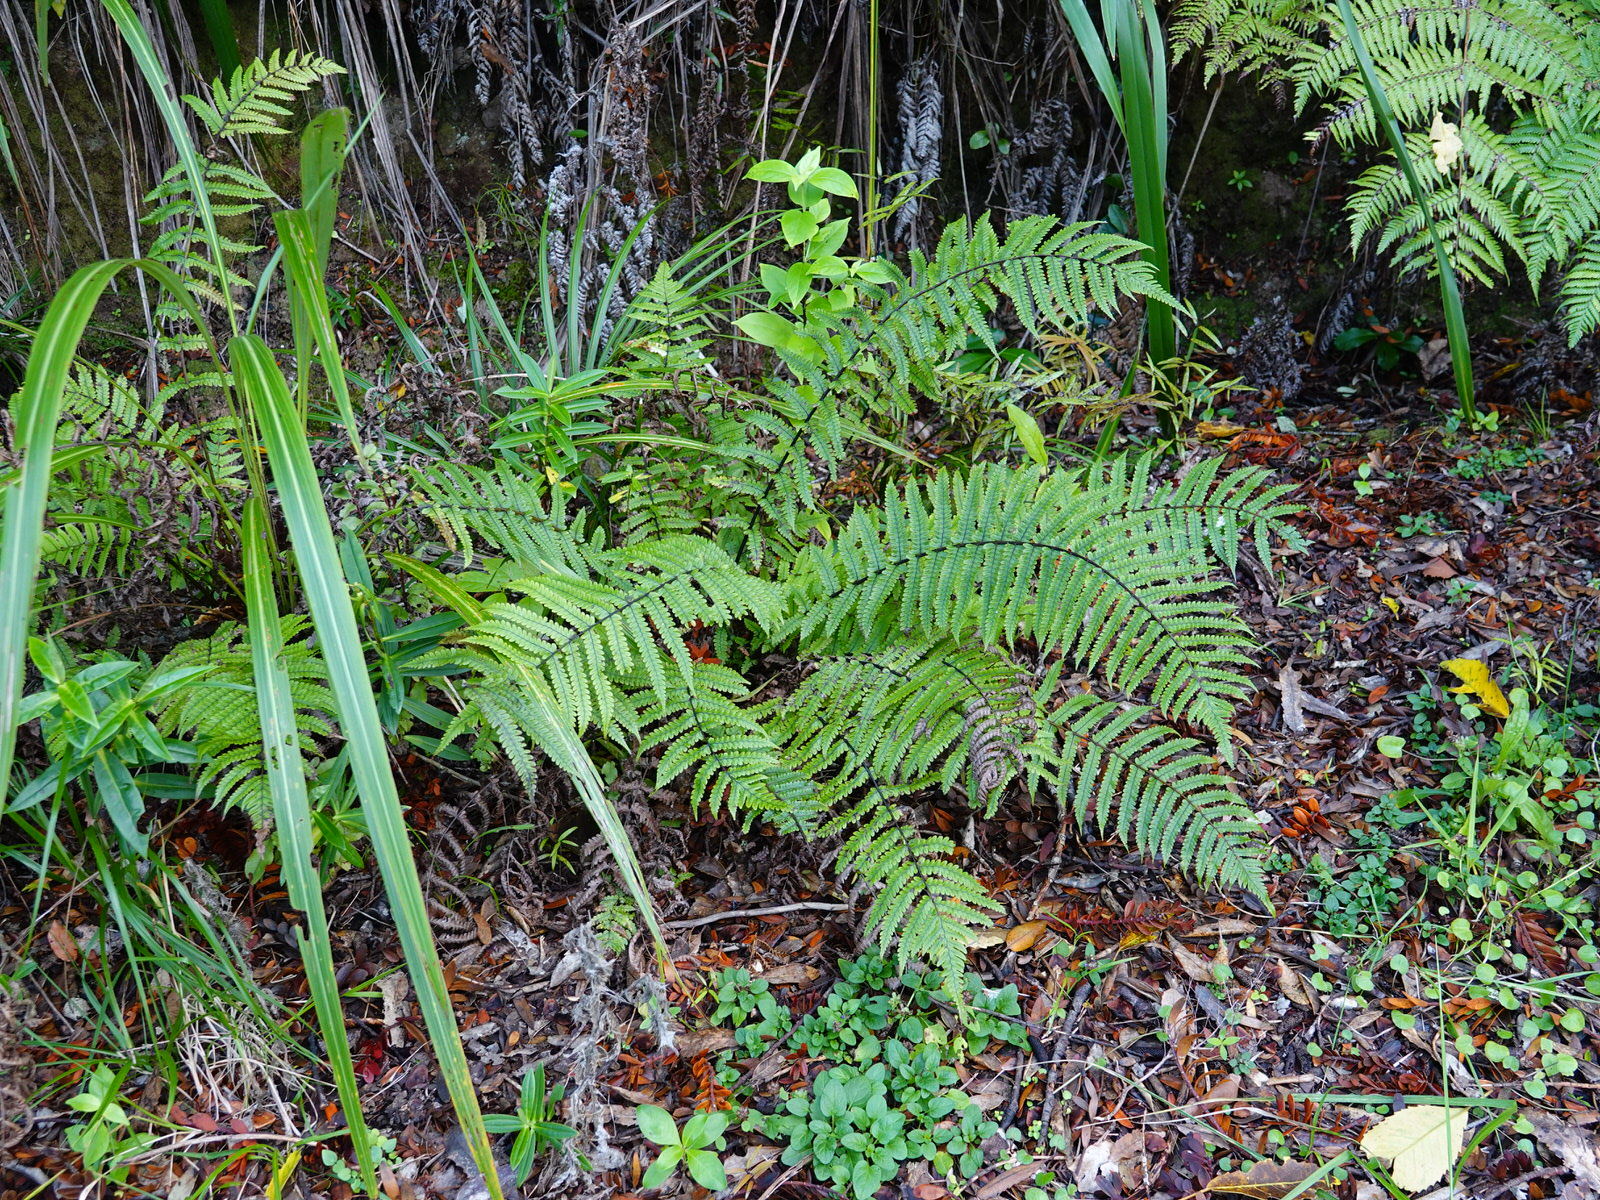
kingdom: Plantae
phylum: Tracheophyta
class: Polypodiopsida
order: Polypodiales
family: Thelypteridaceae
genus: Pakau
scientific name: Pakau pennigera
